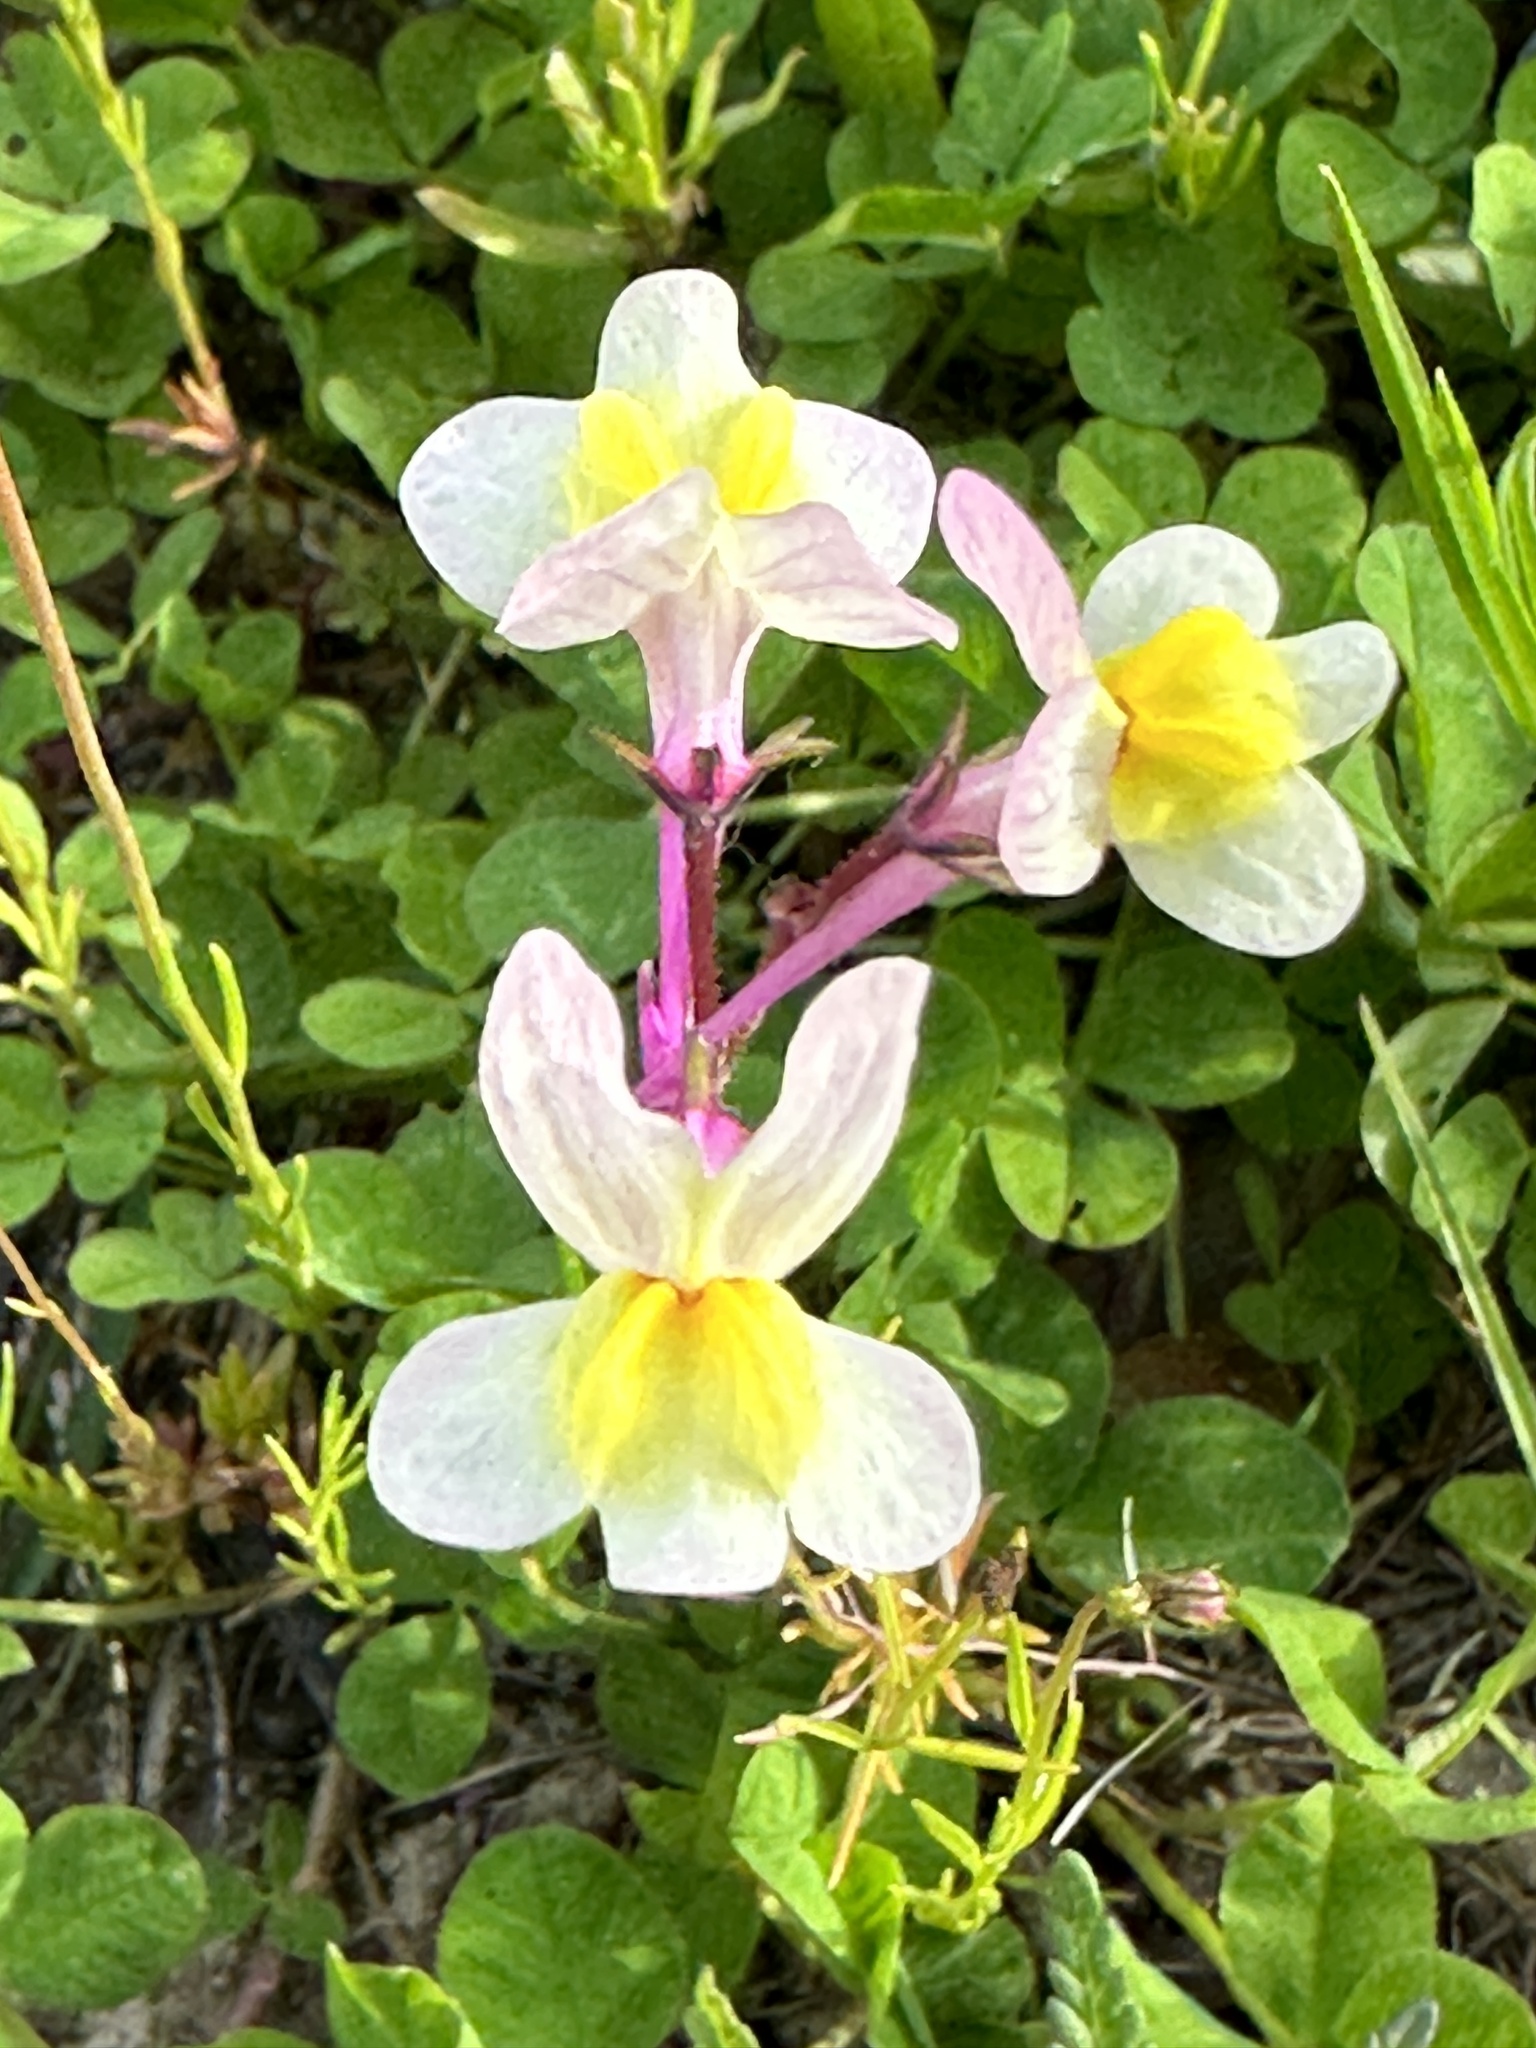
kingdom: Plantae
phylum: Tracheophyta
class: Magnoliopsida
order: Lamiales
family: Plantaginaceae
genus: Linaria
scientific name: Linaria maroccana
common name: Moroccan toadflax
